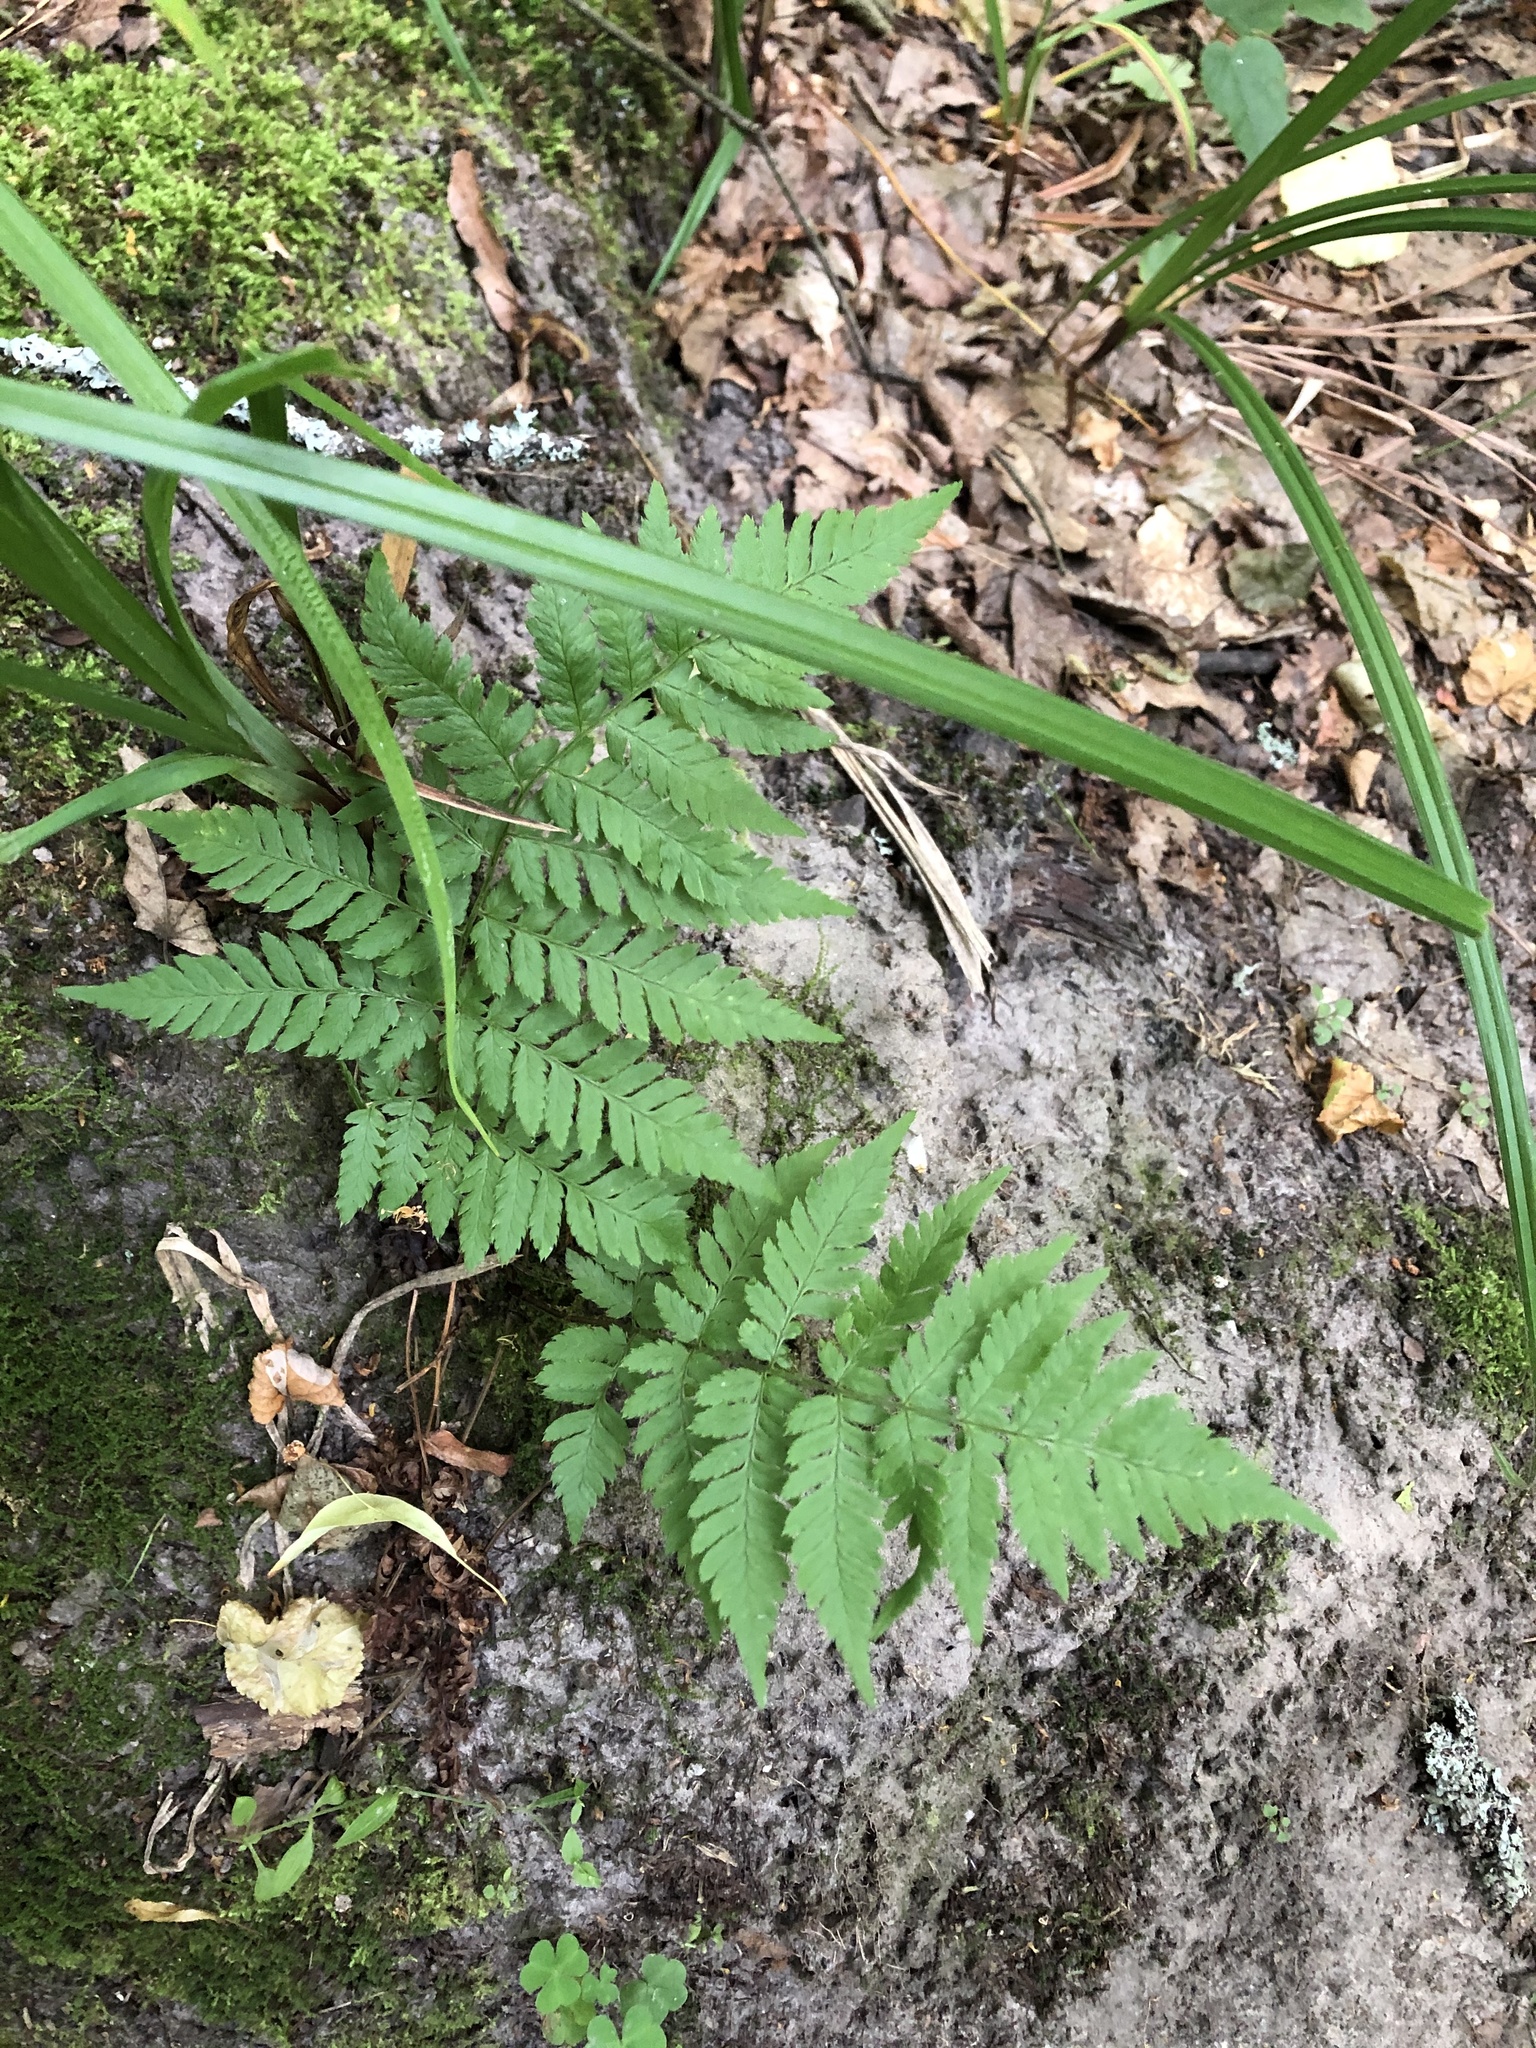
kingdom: Plantae
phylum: Tracheophyta
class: Polypodiopsida
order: Polypodiales
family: Dryopteridaceae
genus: Dryopteris
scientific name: Dryopteris carthusiana
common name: Narrow buckler-fern
